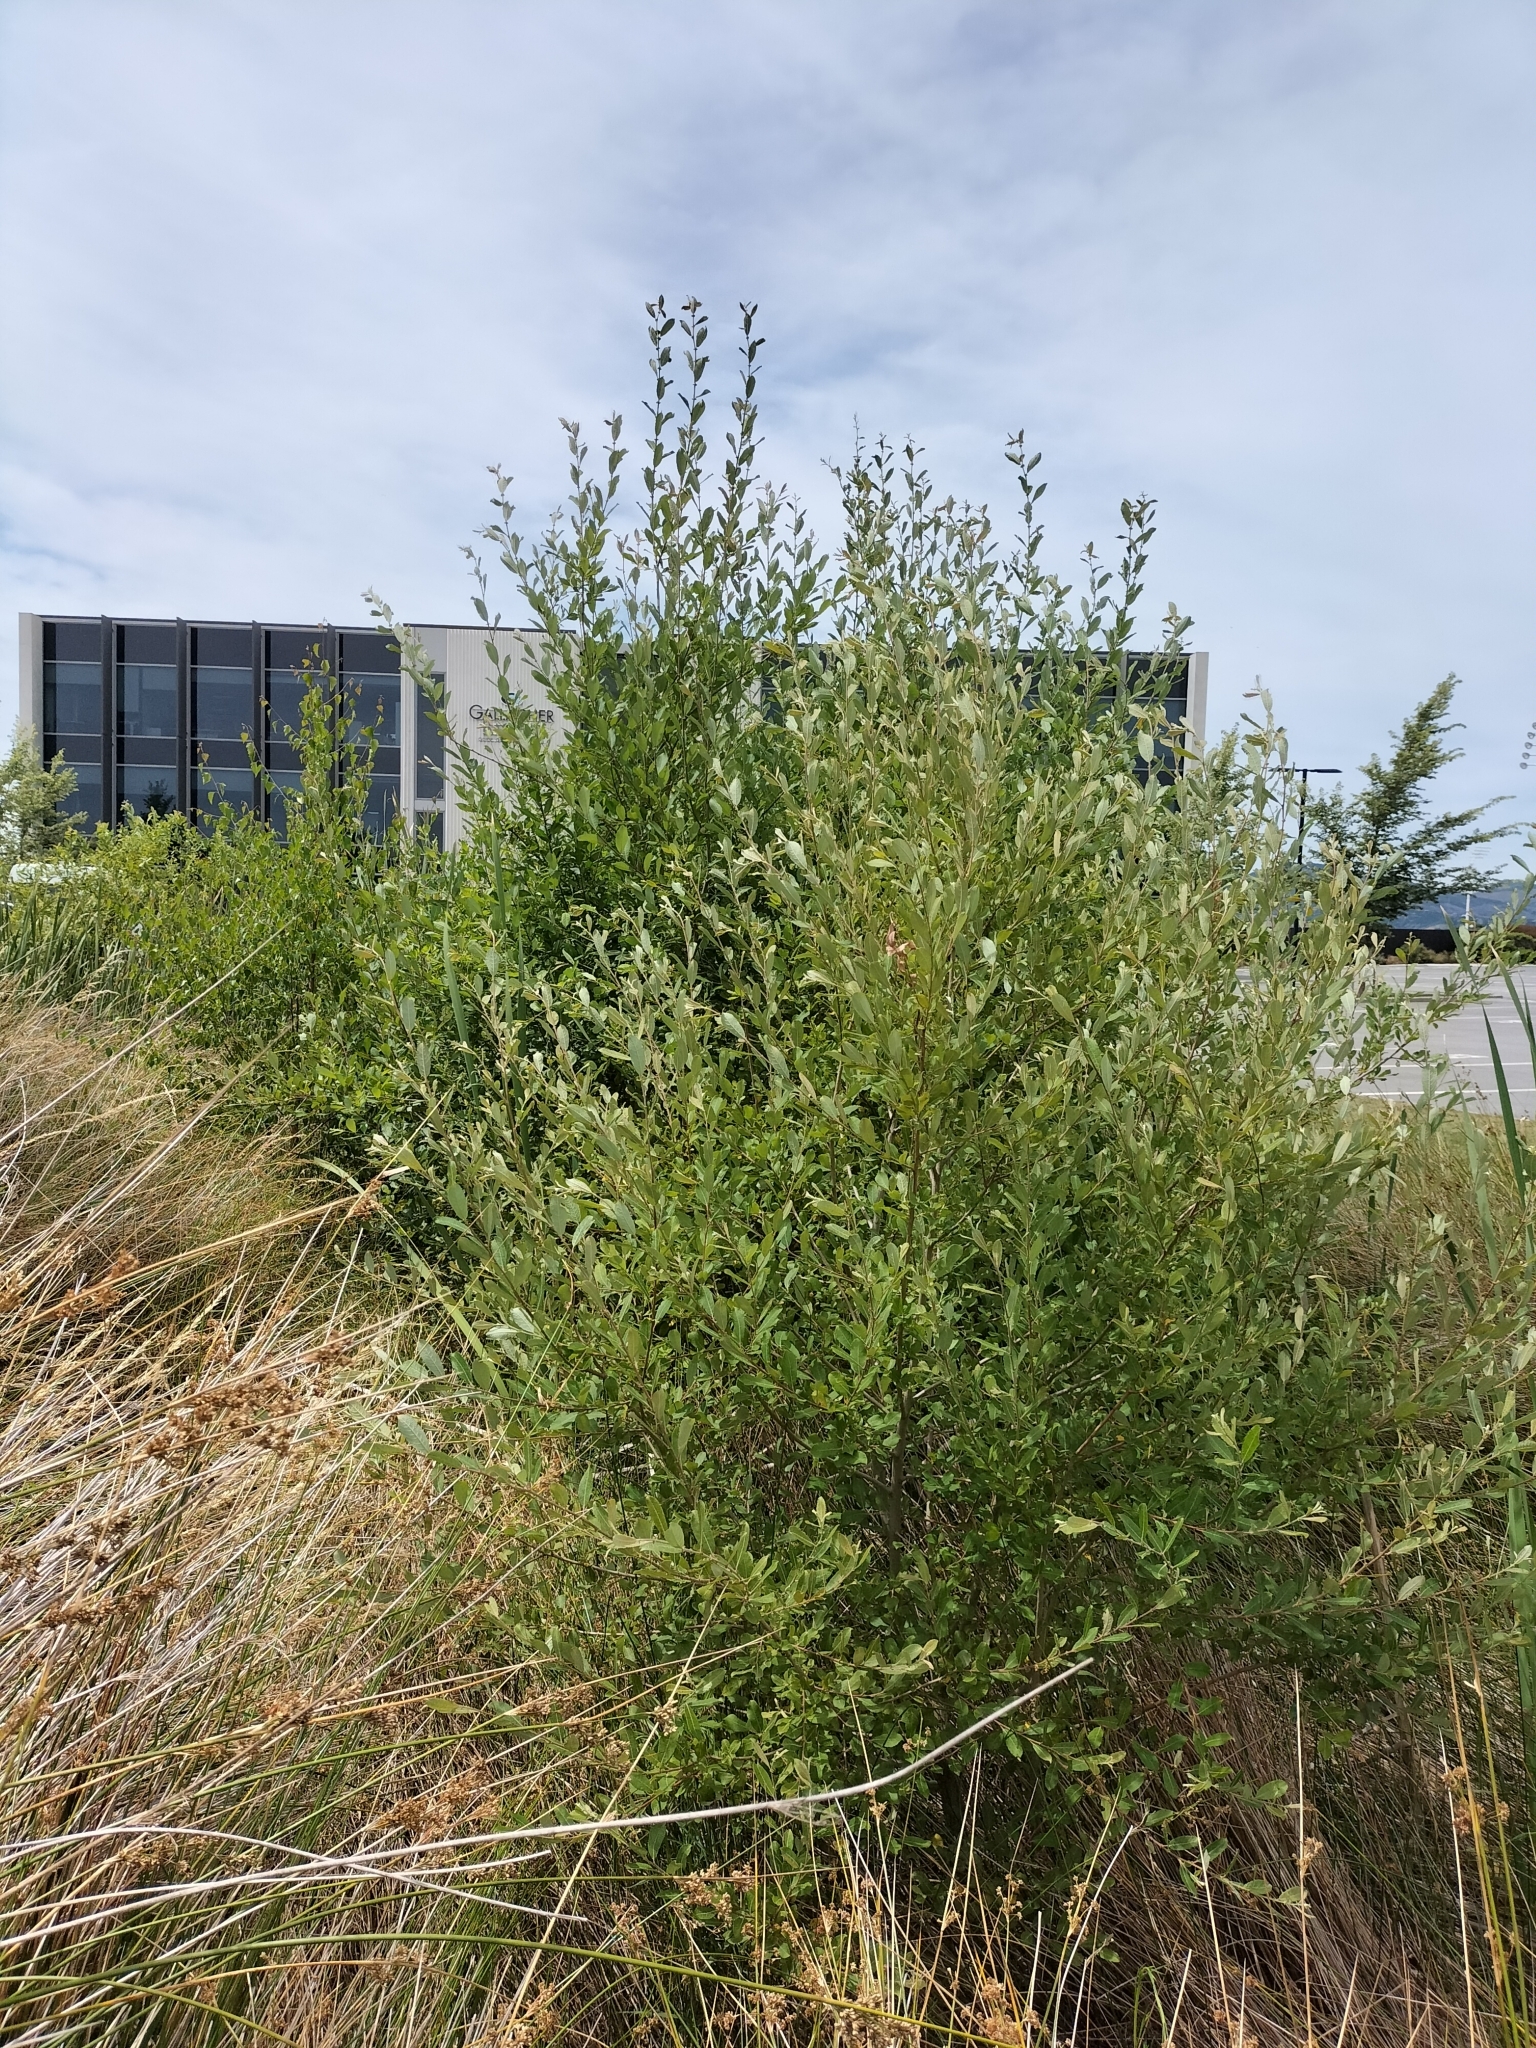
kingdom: Plantae
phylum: Tracheophyta
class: Magnoliopsida
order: Malpighiales
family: Salicaceae
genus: Salix
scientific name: Salix cinerea
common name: Common sallow
